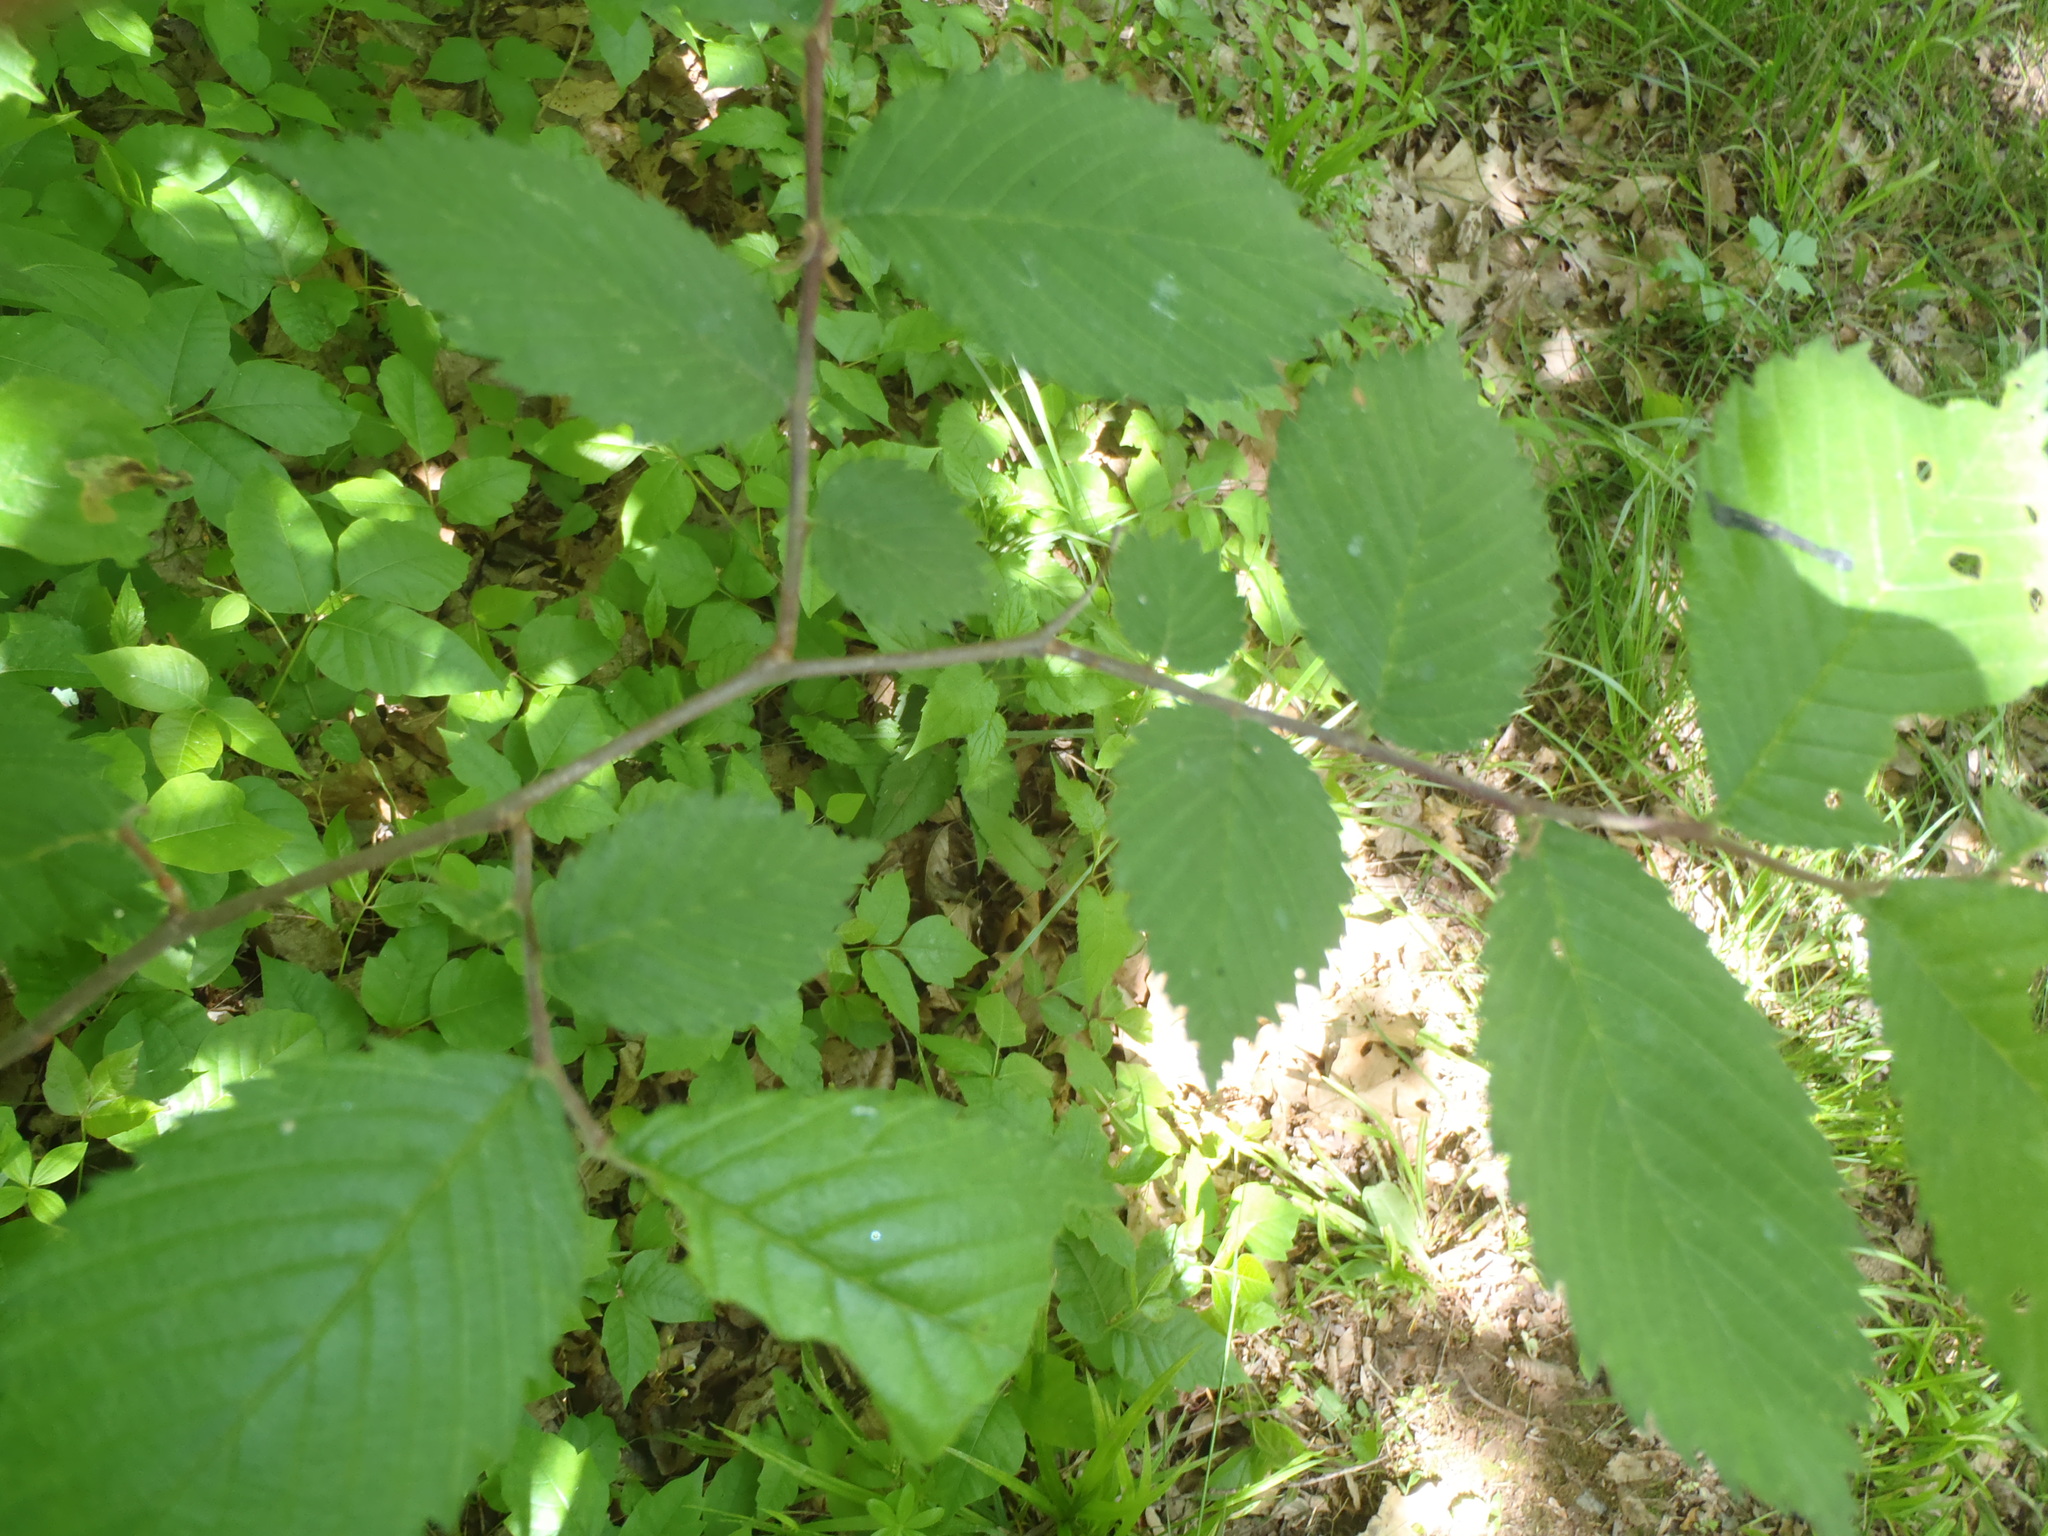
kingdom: Plantae
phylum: Tracheophyta
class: Magnoliopsida
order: Rosales
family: Ulmaceae
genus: Ulmus
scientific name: Ulmus rubra
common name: Slippery elm
